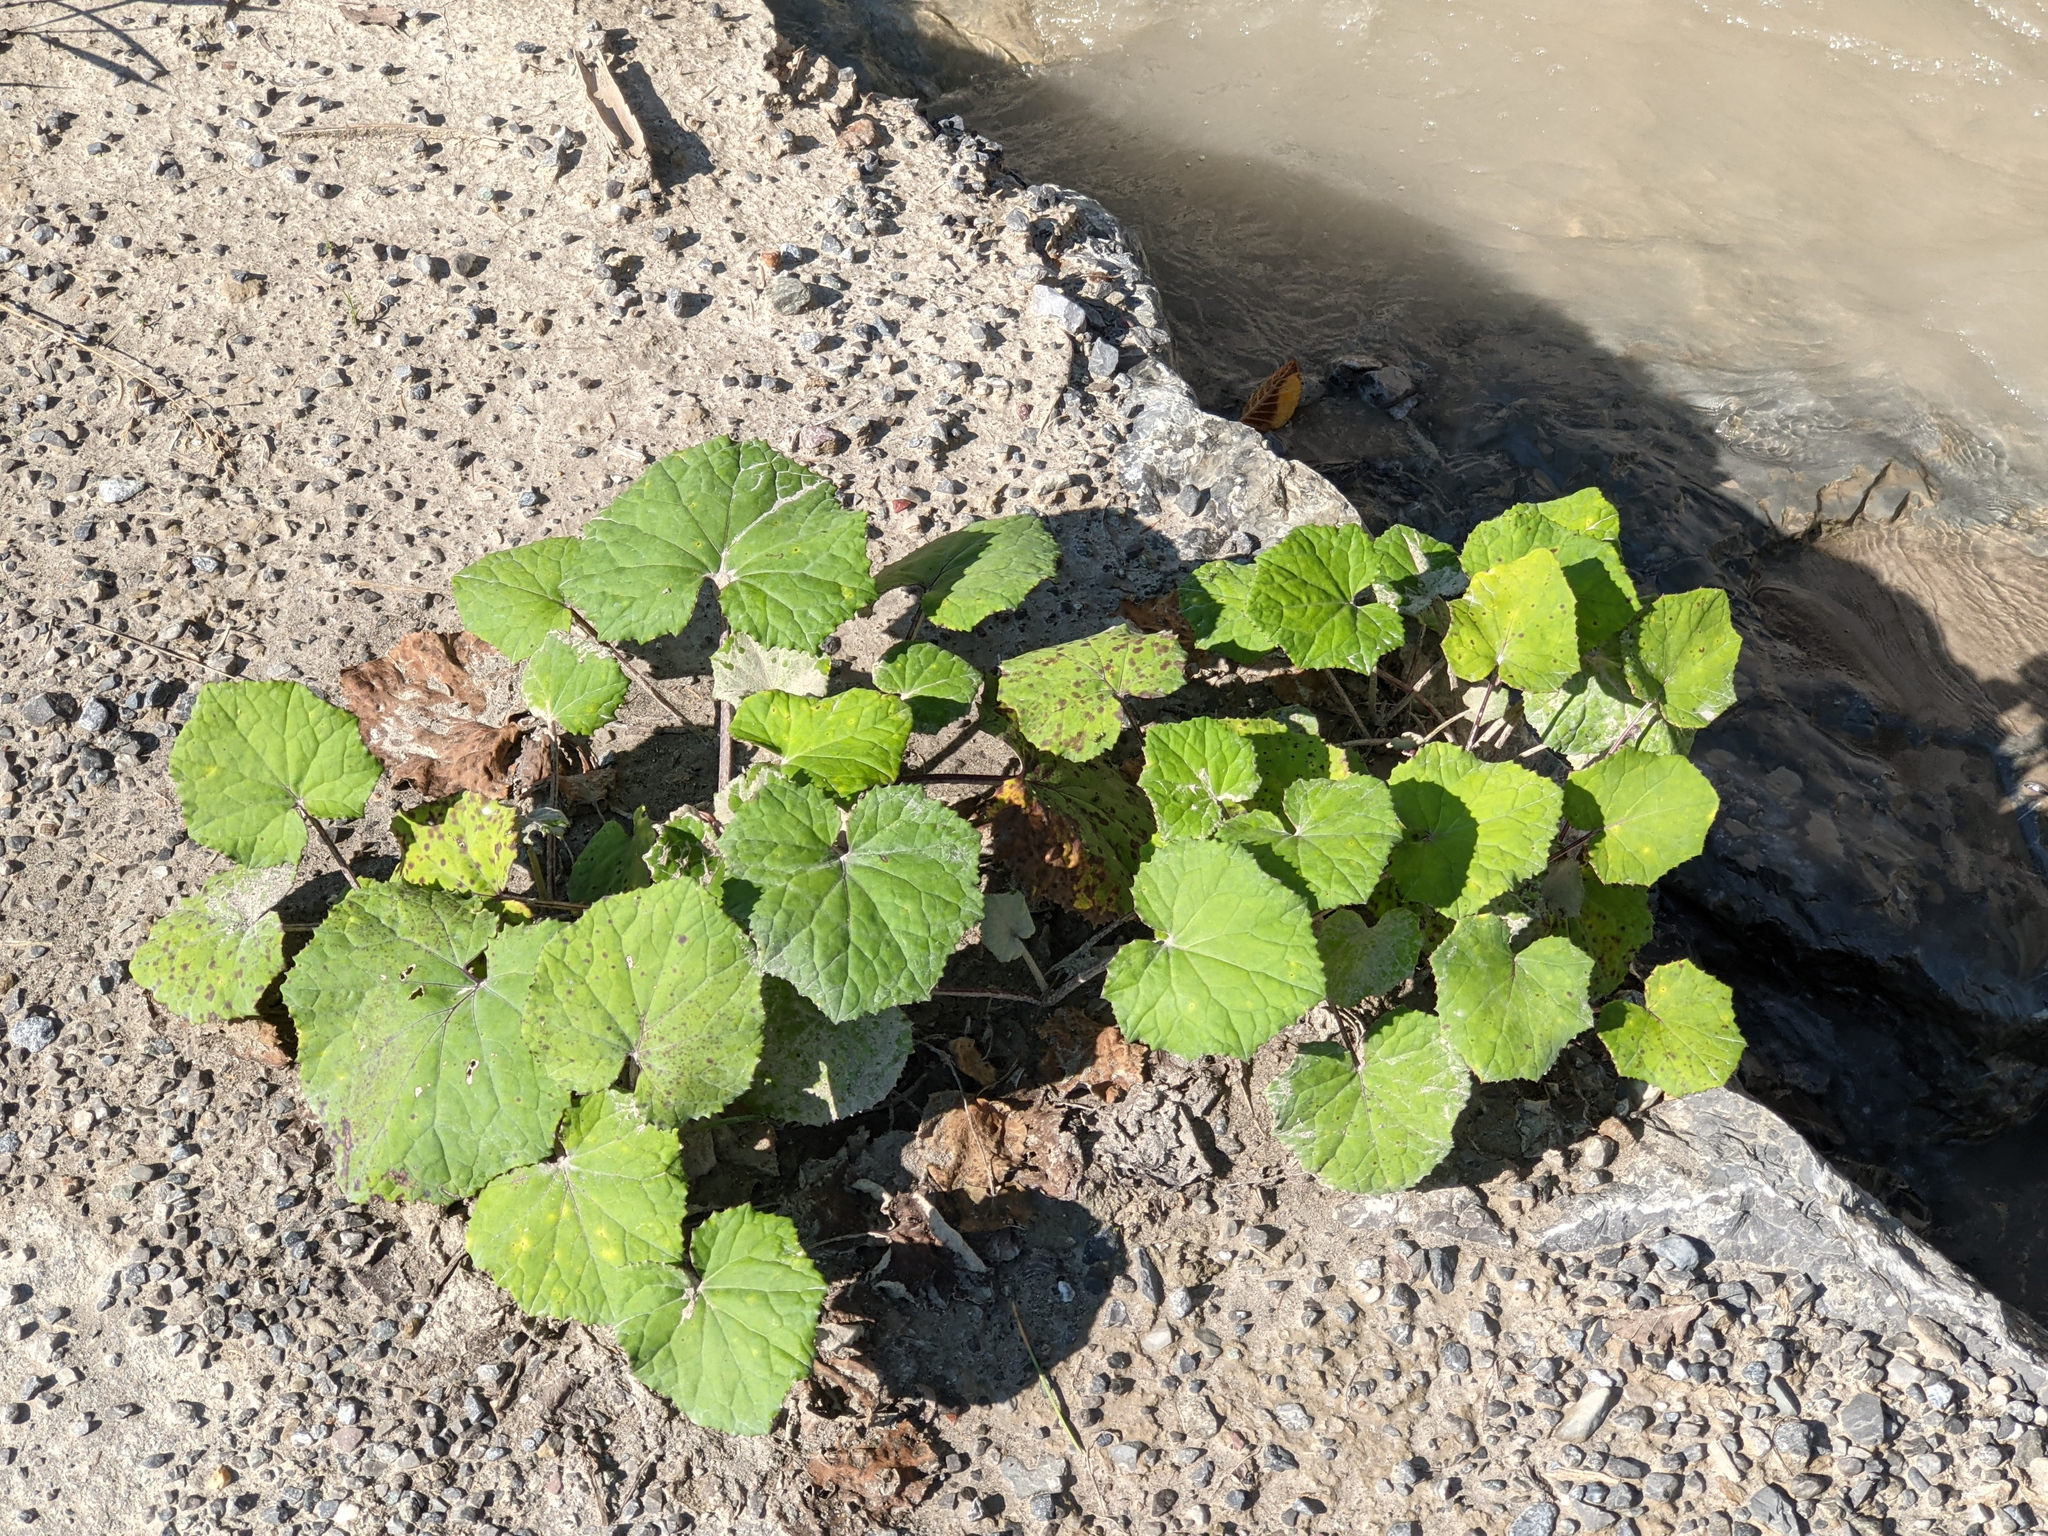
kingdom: Plantae
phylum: Tracheophyta
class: Magnoliopsida
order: Asterales
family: Asteraceae
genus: Tussilago
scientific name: Tussilago farfara
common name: Coltsfoot
